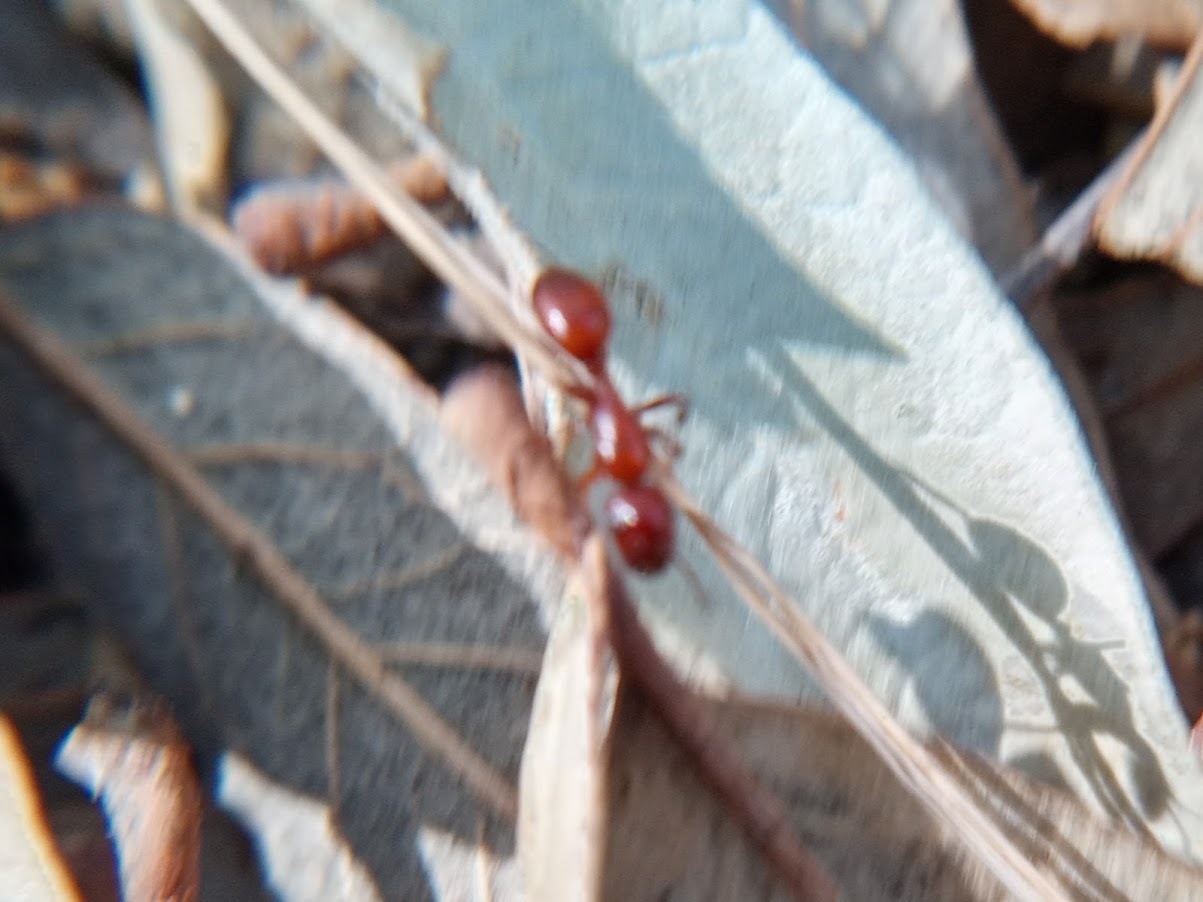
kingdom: Animalia
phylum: Arthropoda
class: Insecta
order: Hymenoptera
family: Formicidae
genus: Camponotus
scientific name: Camponotus schaefferi
